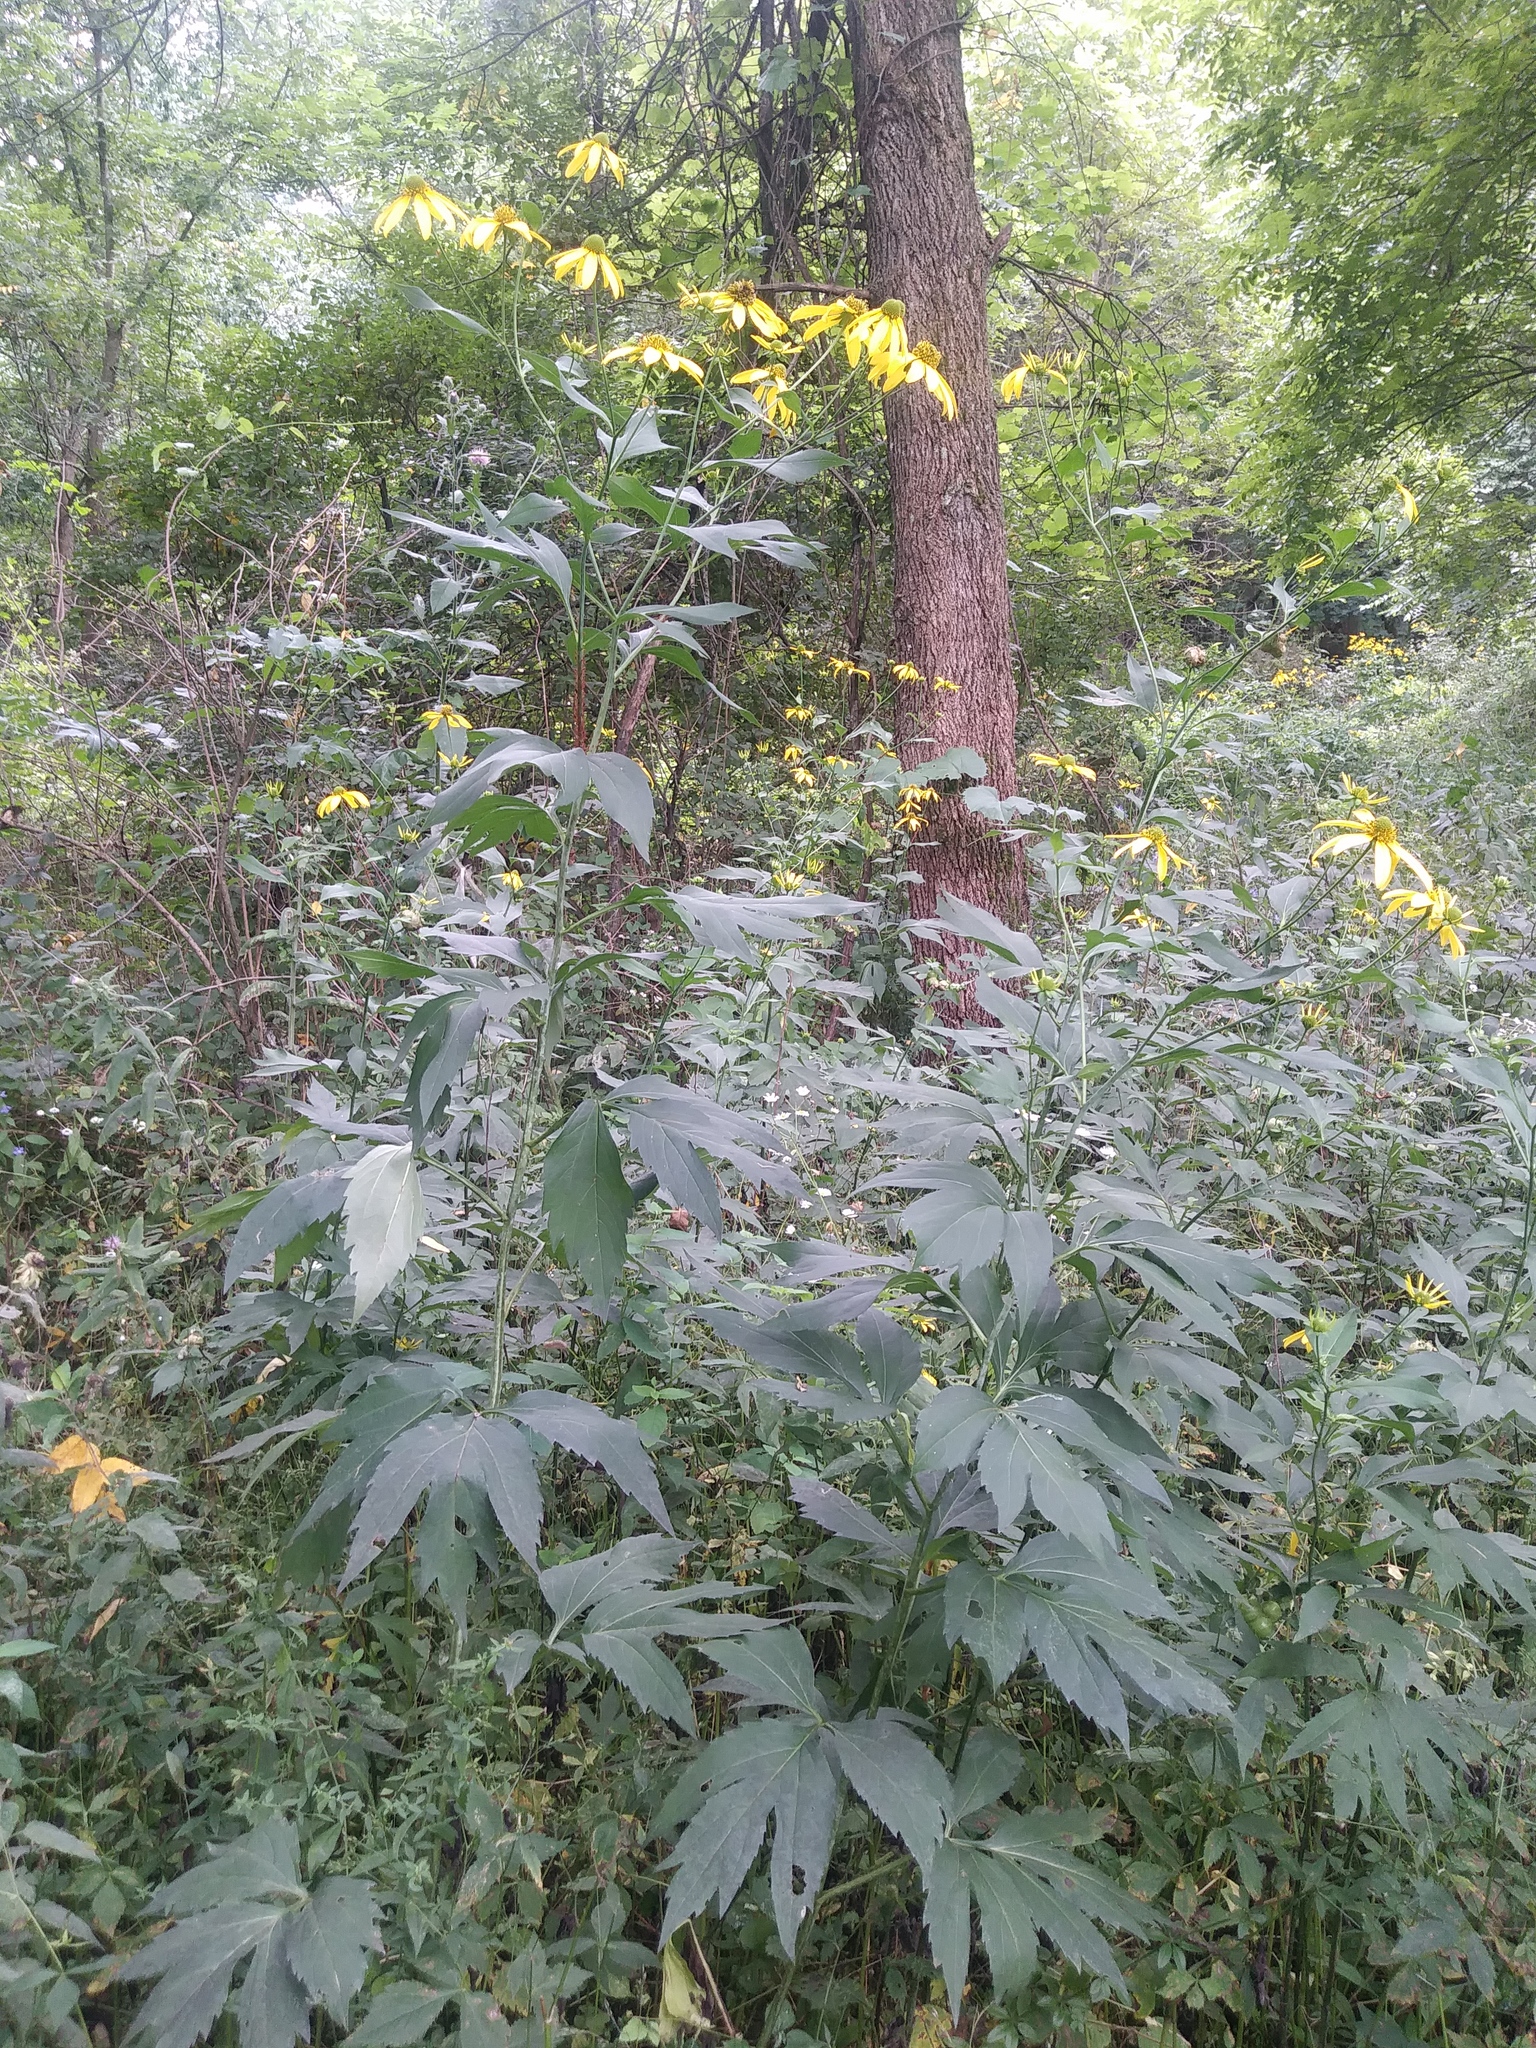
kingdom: Plantae
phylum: Tracheophyta
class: Magnoliopsida
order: Asterales
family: Asteraceae
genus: Rudbeckia
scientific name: Rudbeckia laciniata
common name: Coneflower
